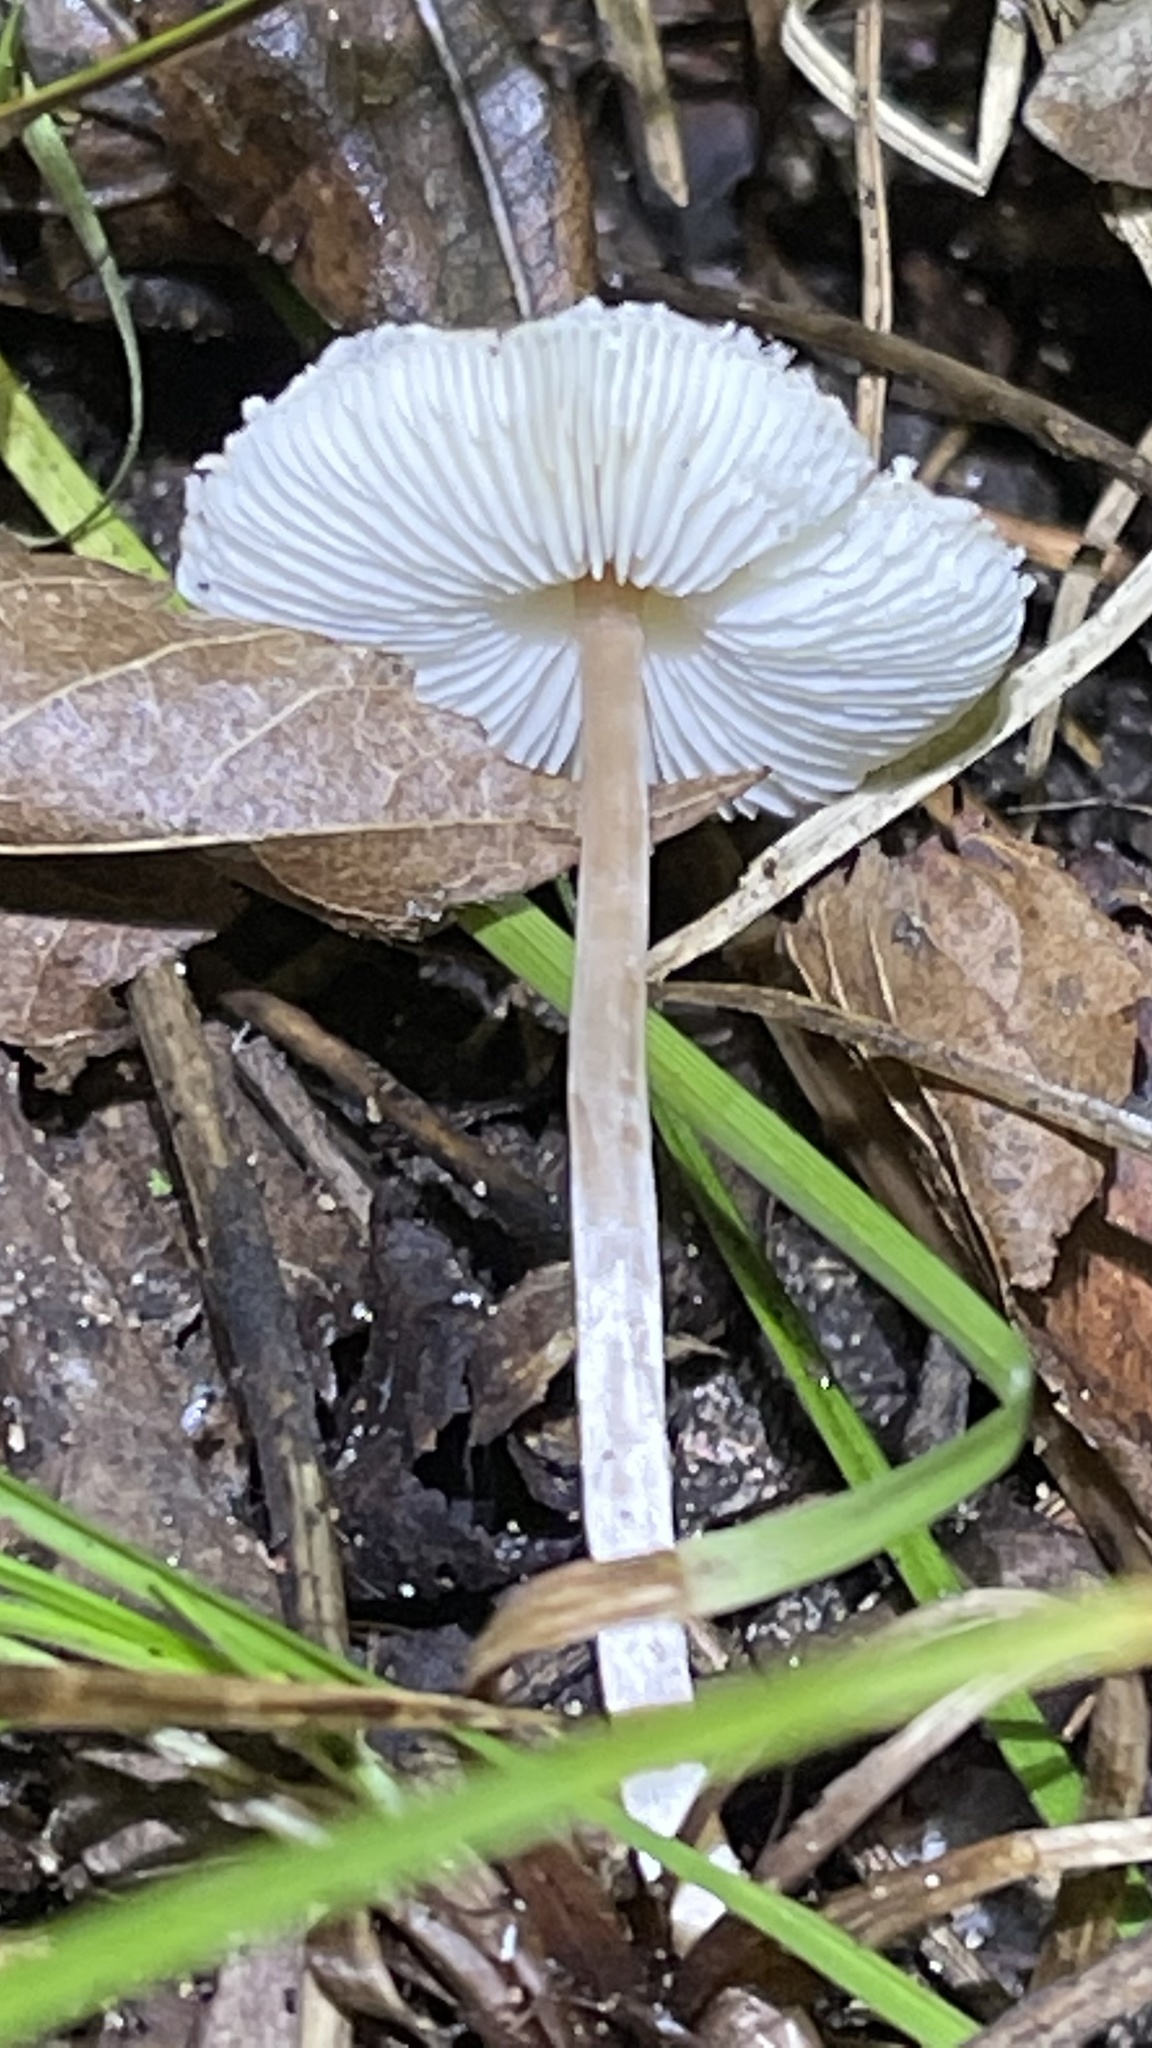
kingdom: Fungi
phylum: Basidiomycota
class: Agaricomycetes
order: Agaricales
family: Agaricaceae
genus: Lepiota
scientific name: Lepiota cristata
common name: Stinking dapperling
